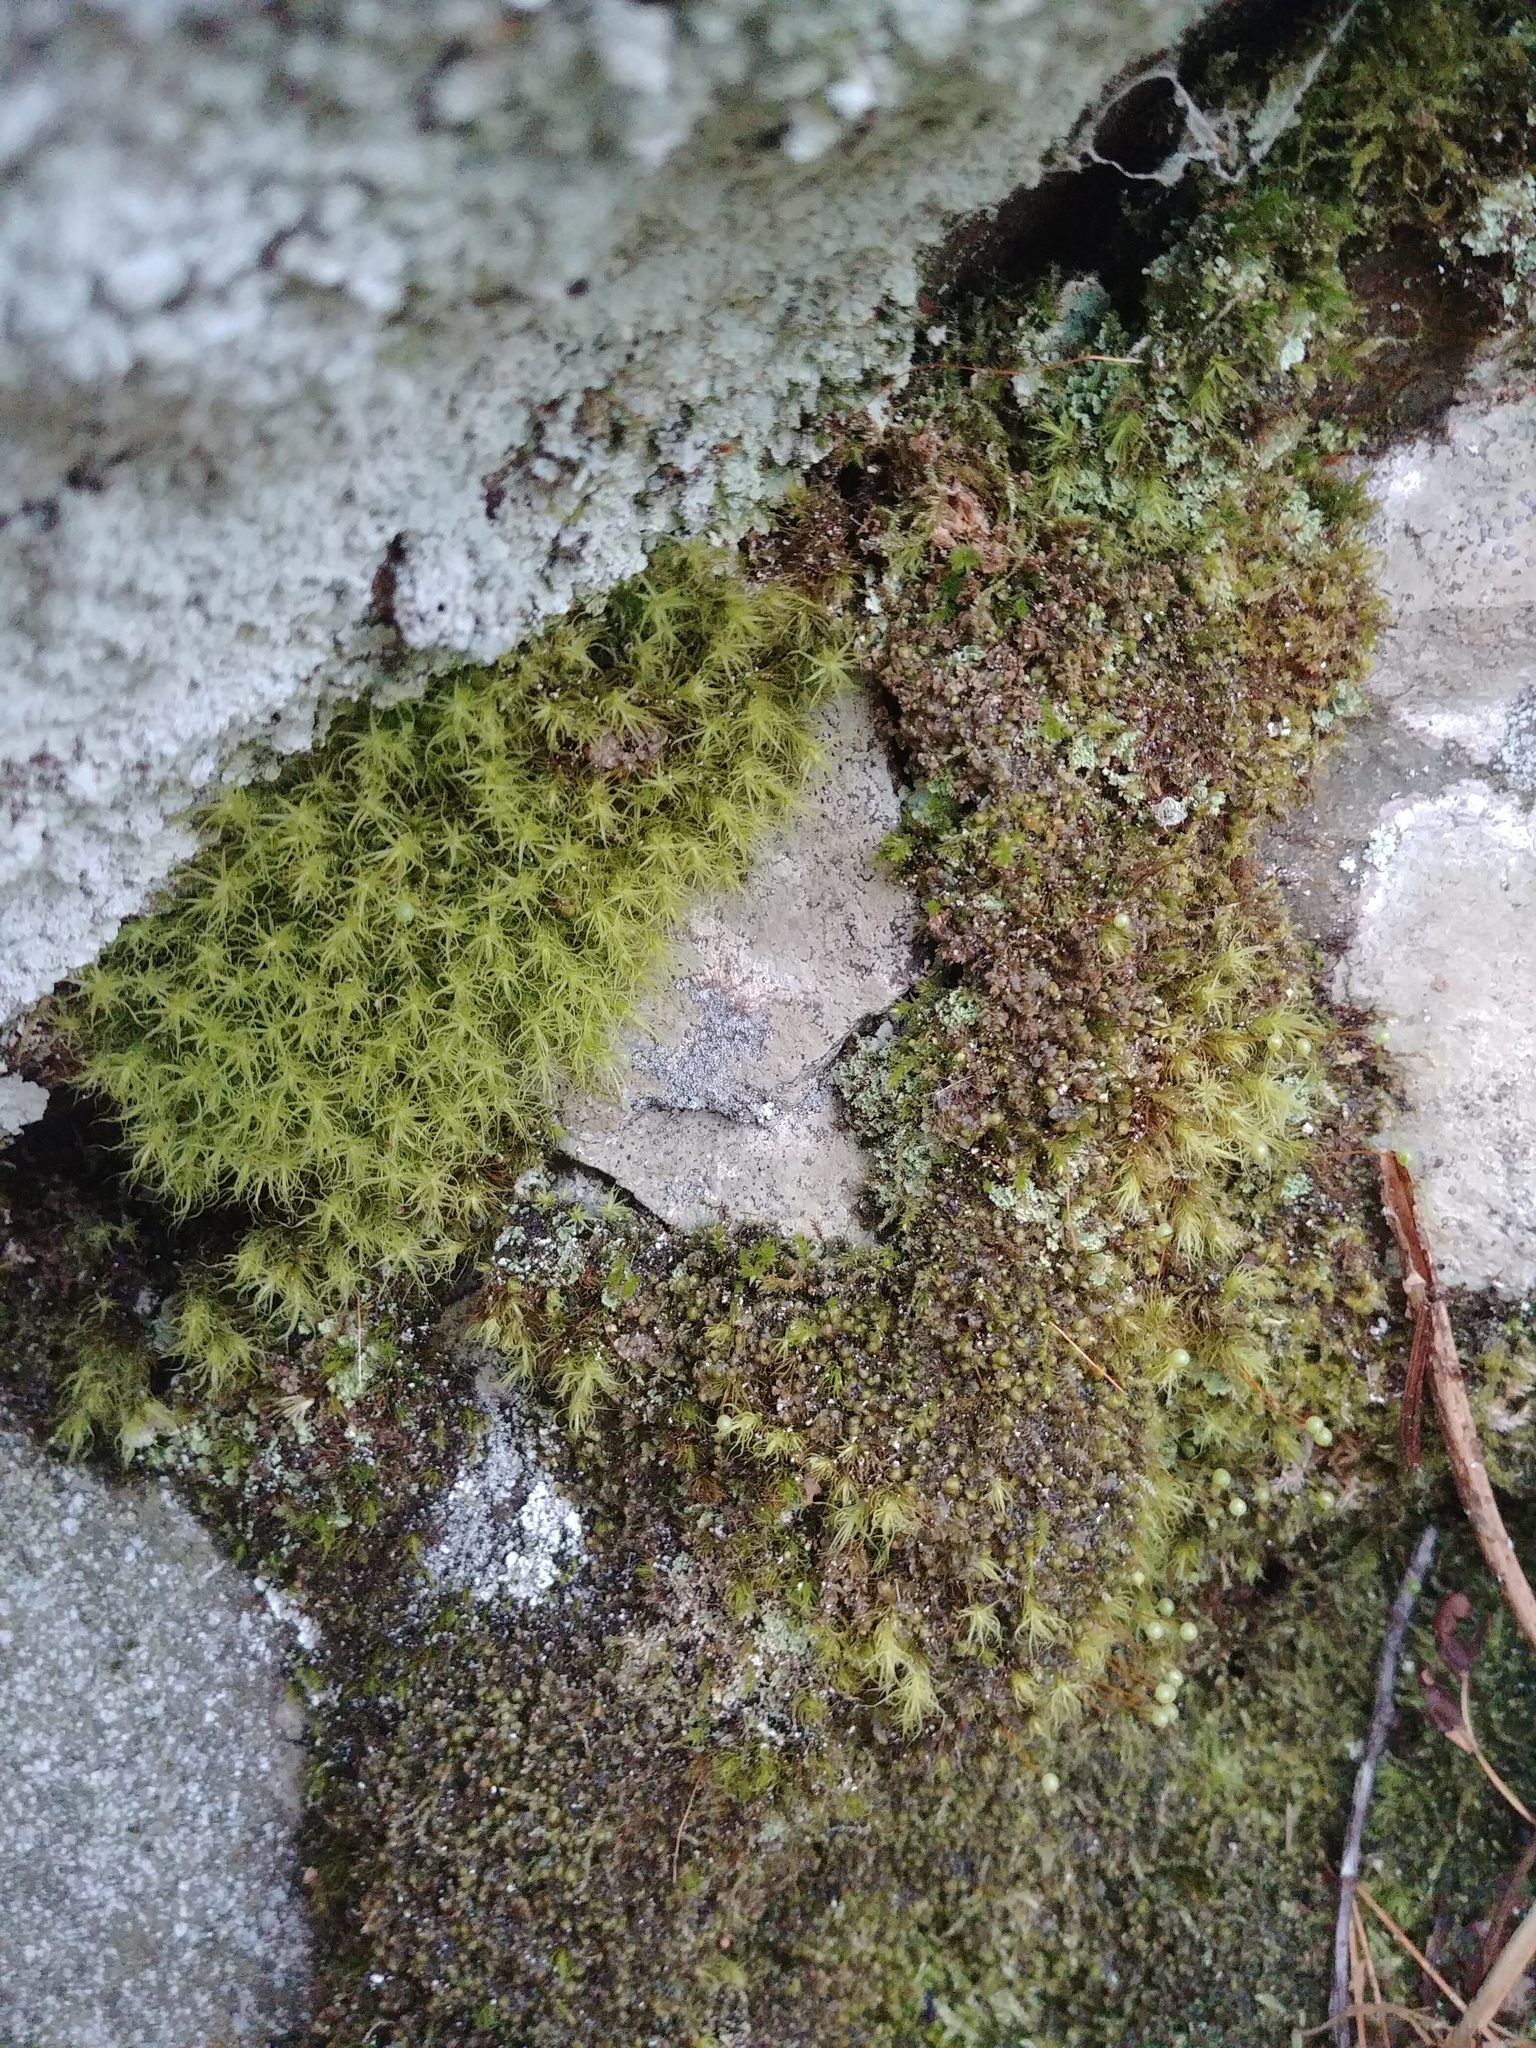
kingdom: Plantae
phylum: Bryophyta
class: Bryopsida
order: Bartramiales
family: Bartramiaceae
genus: Bartramia
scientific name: Bartramia ithyphylla
